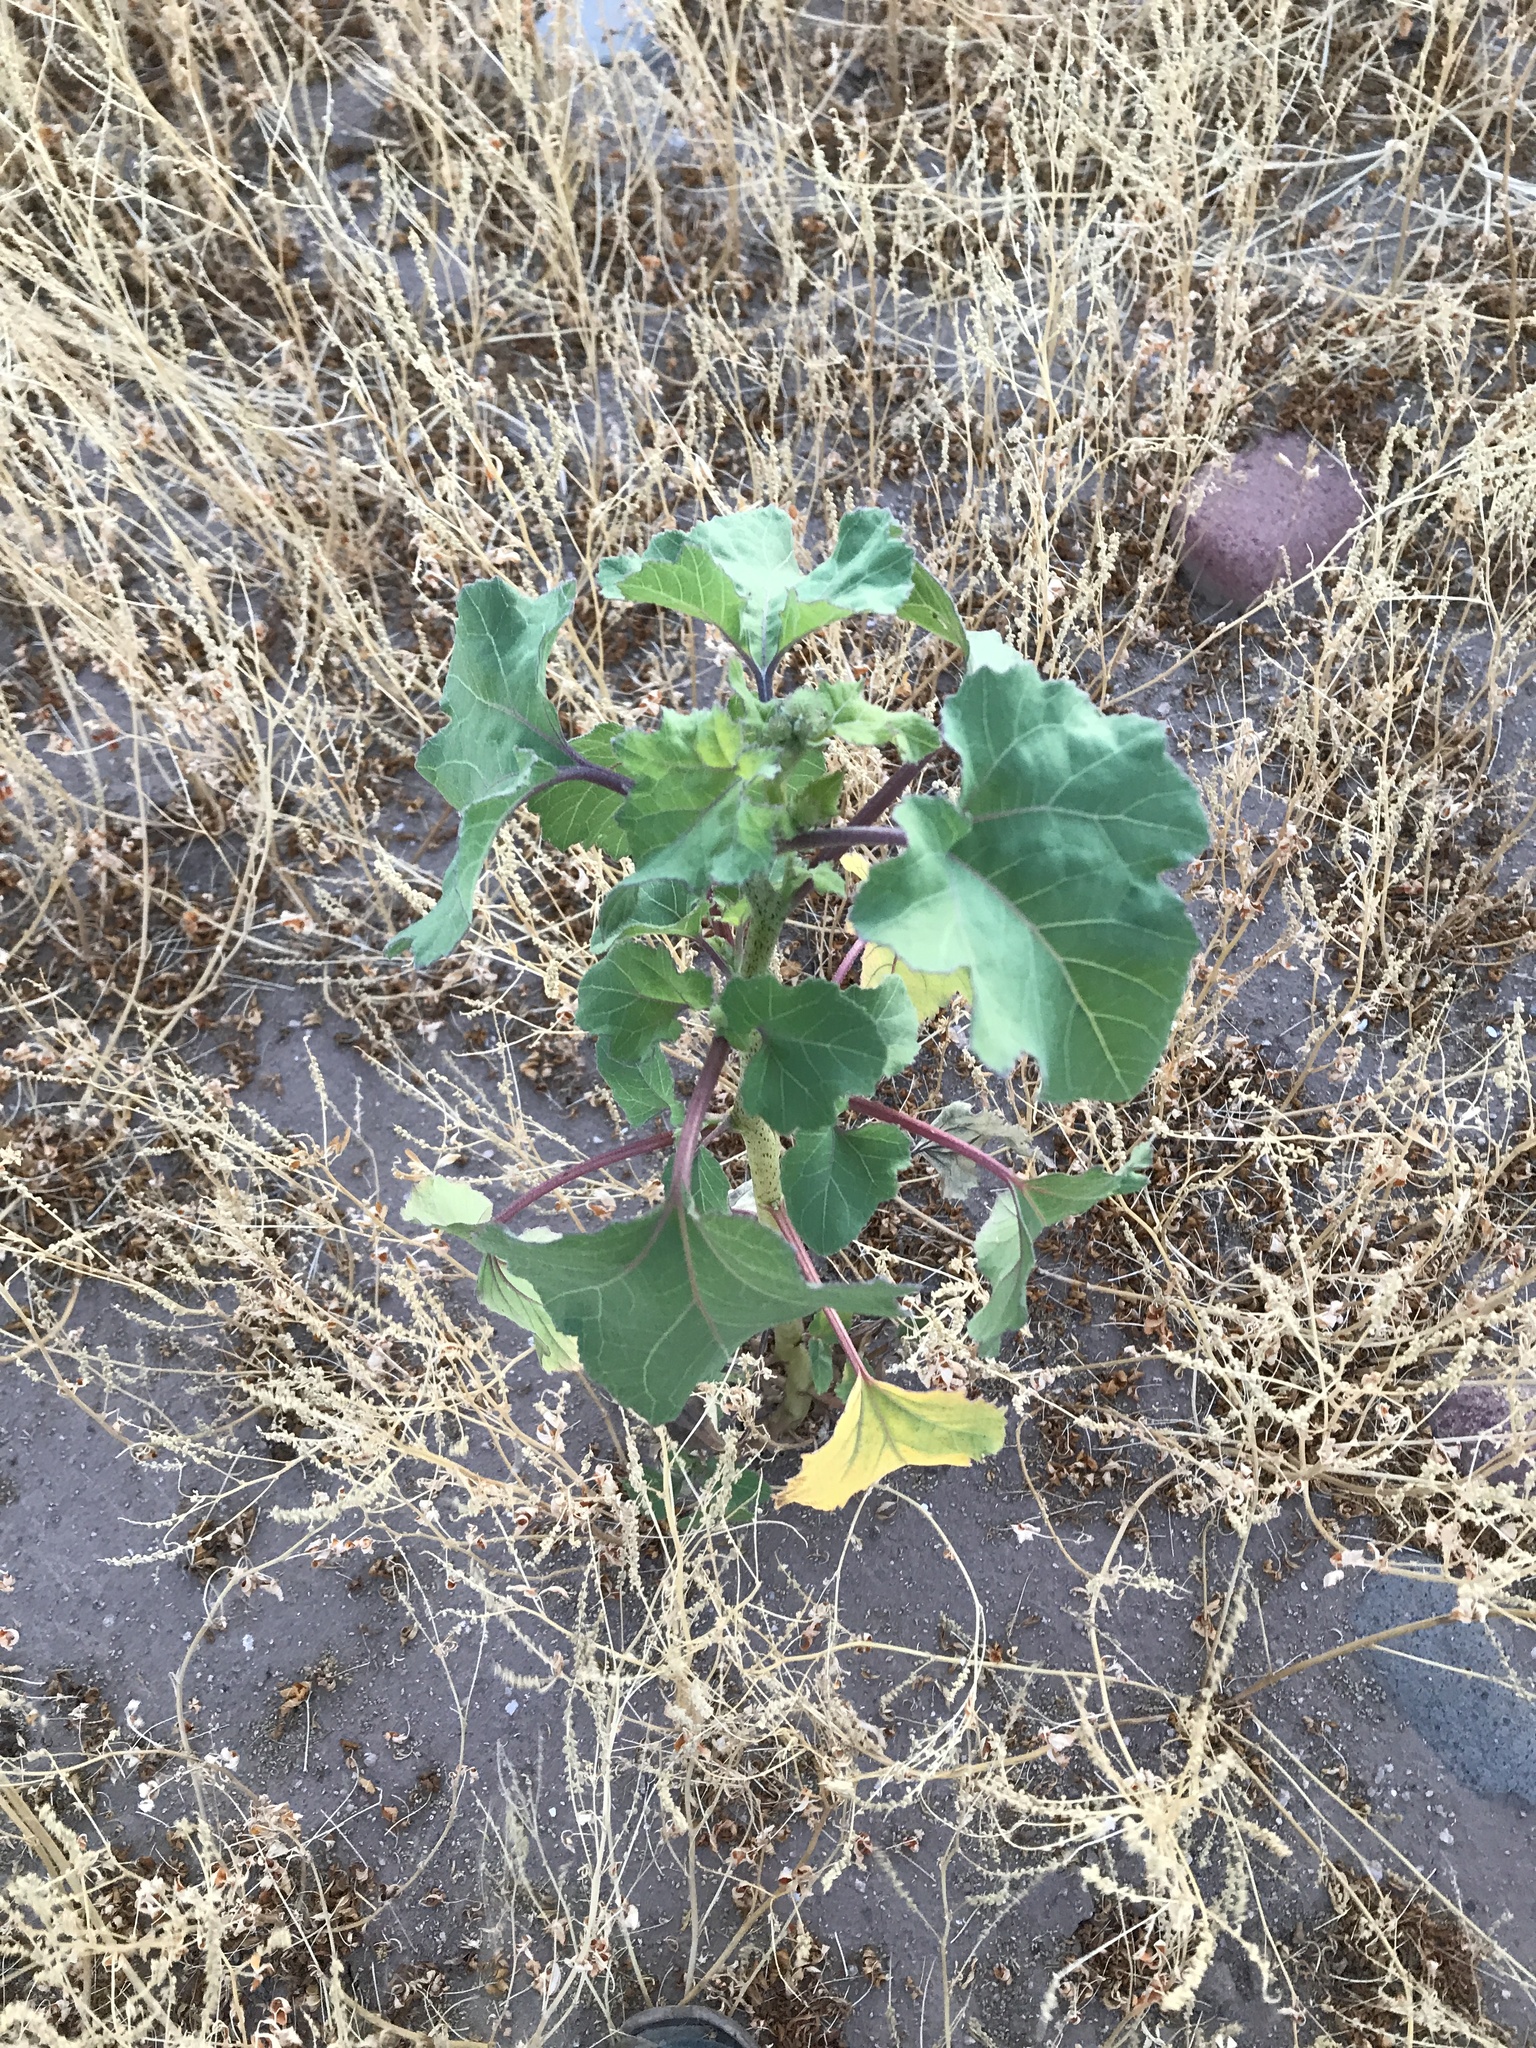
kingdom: Plantae
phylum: Tracheophyta
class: Magnoliopsida
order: Asterales
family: Asteraceae
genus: Xanthium
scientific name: Xanthium strumarium
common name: Rough cocklebur
